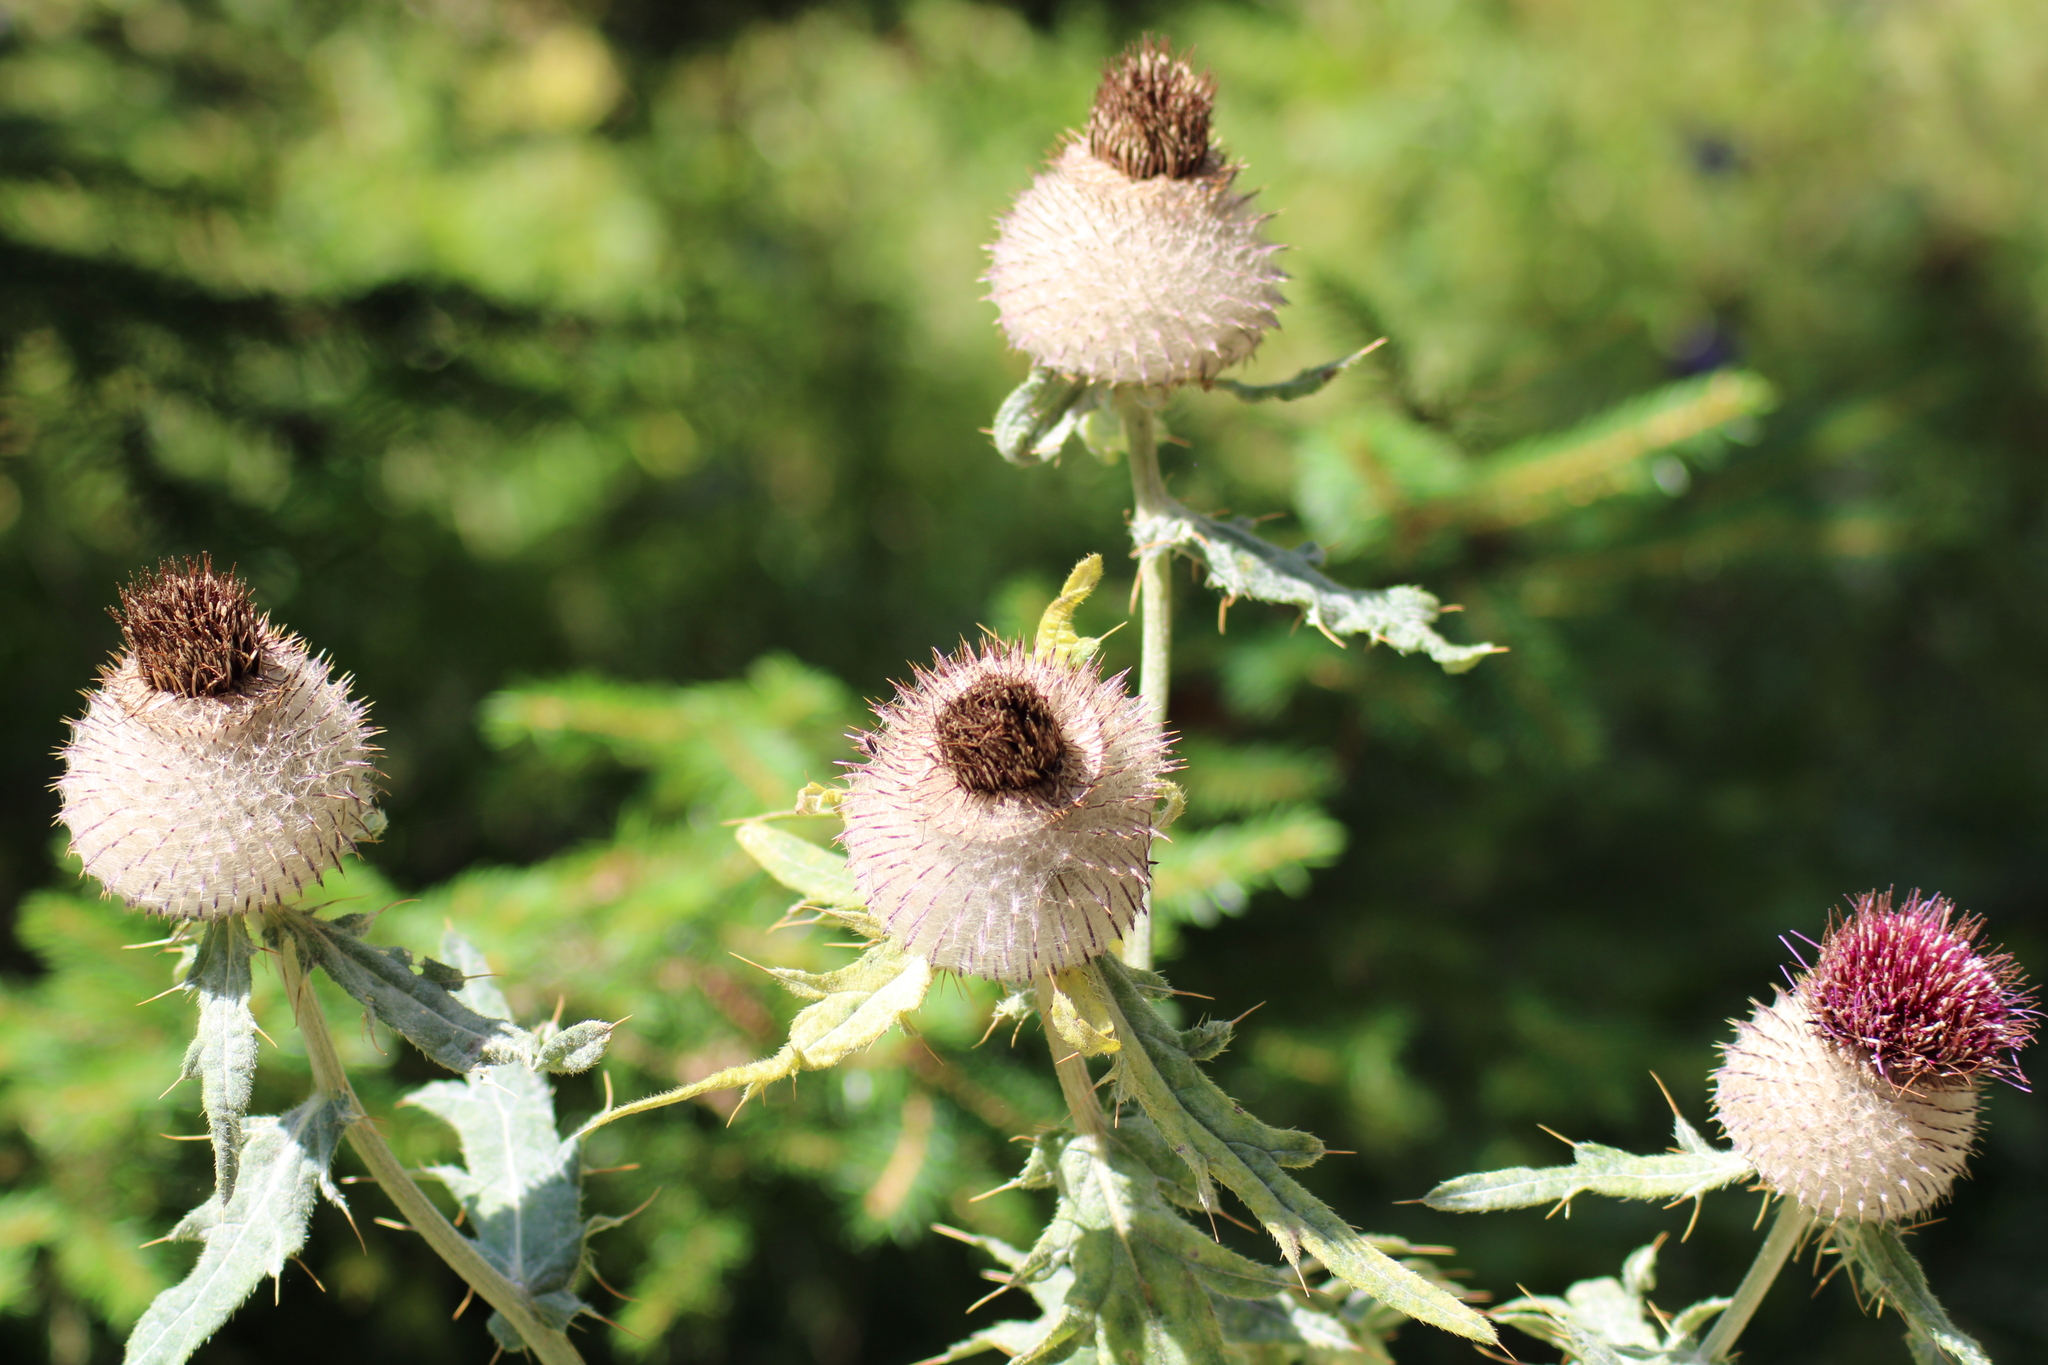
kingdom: Plantae
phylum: Tracheophyta
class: Magnoliopsida
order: Asterales
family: Asteraceae
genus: Lophiolepis
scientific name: Lophiolepis eriophora
